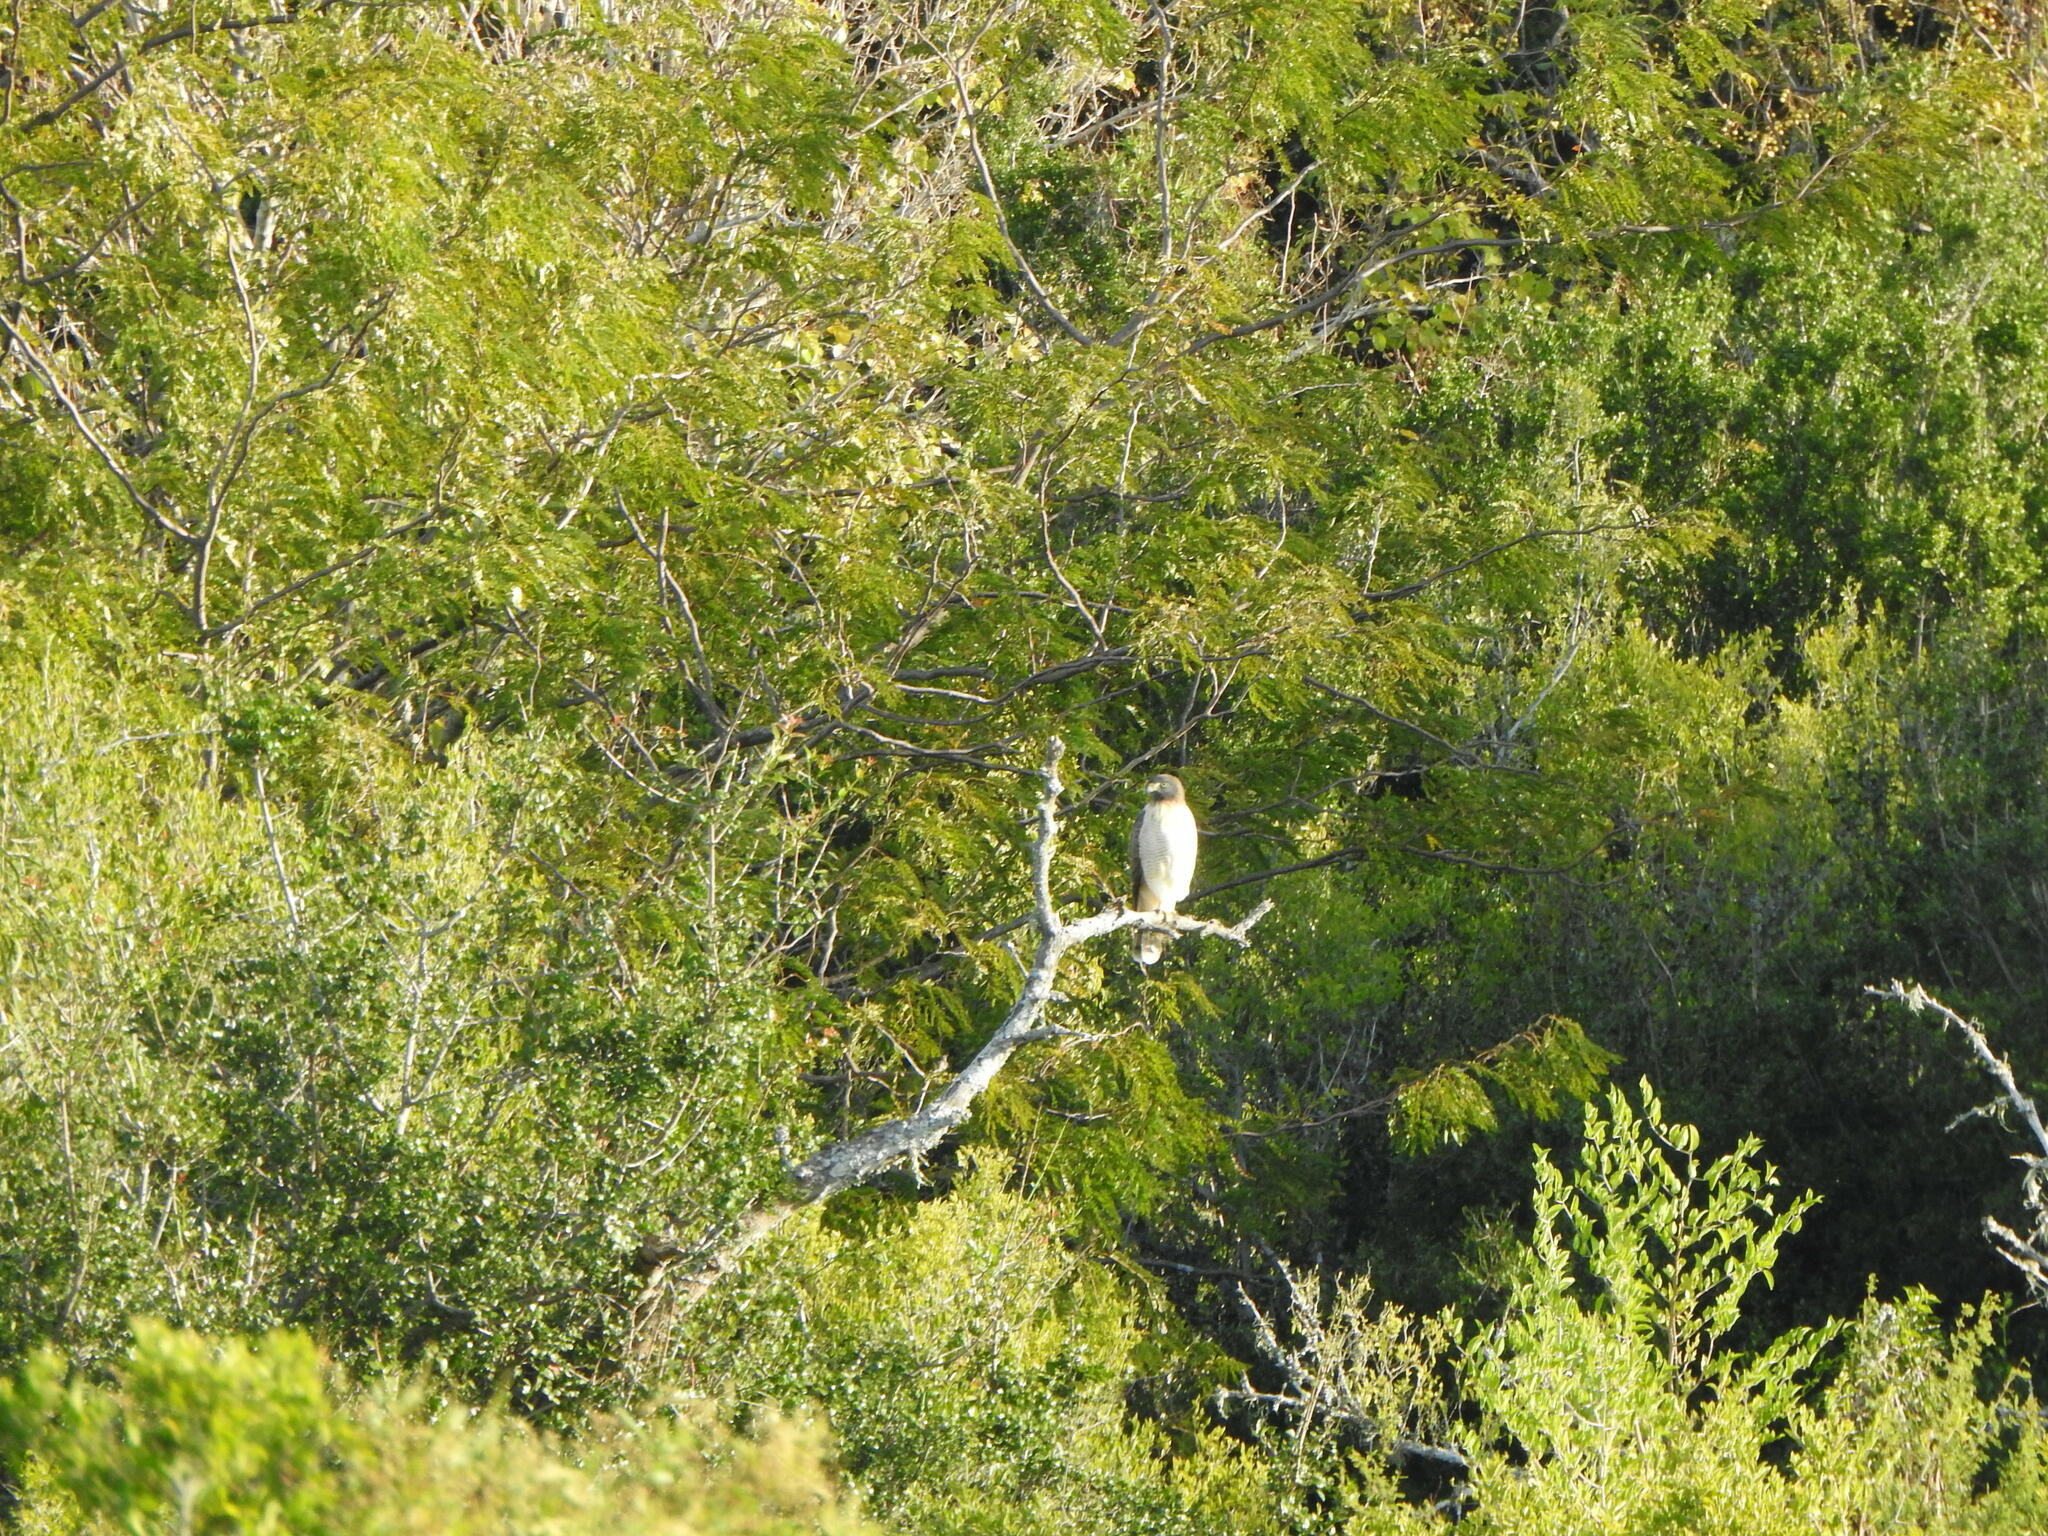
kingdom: Animalia
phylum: Chordata
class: Aves
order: Accipitriformes
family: Accipitridae
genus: Rupornis
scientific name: Rupornis magnirostris
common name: Roadside hawk
